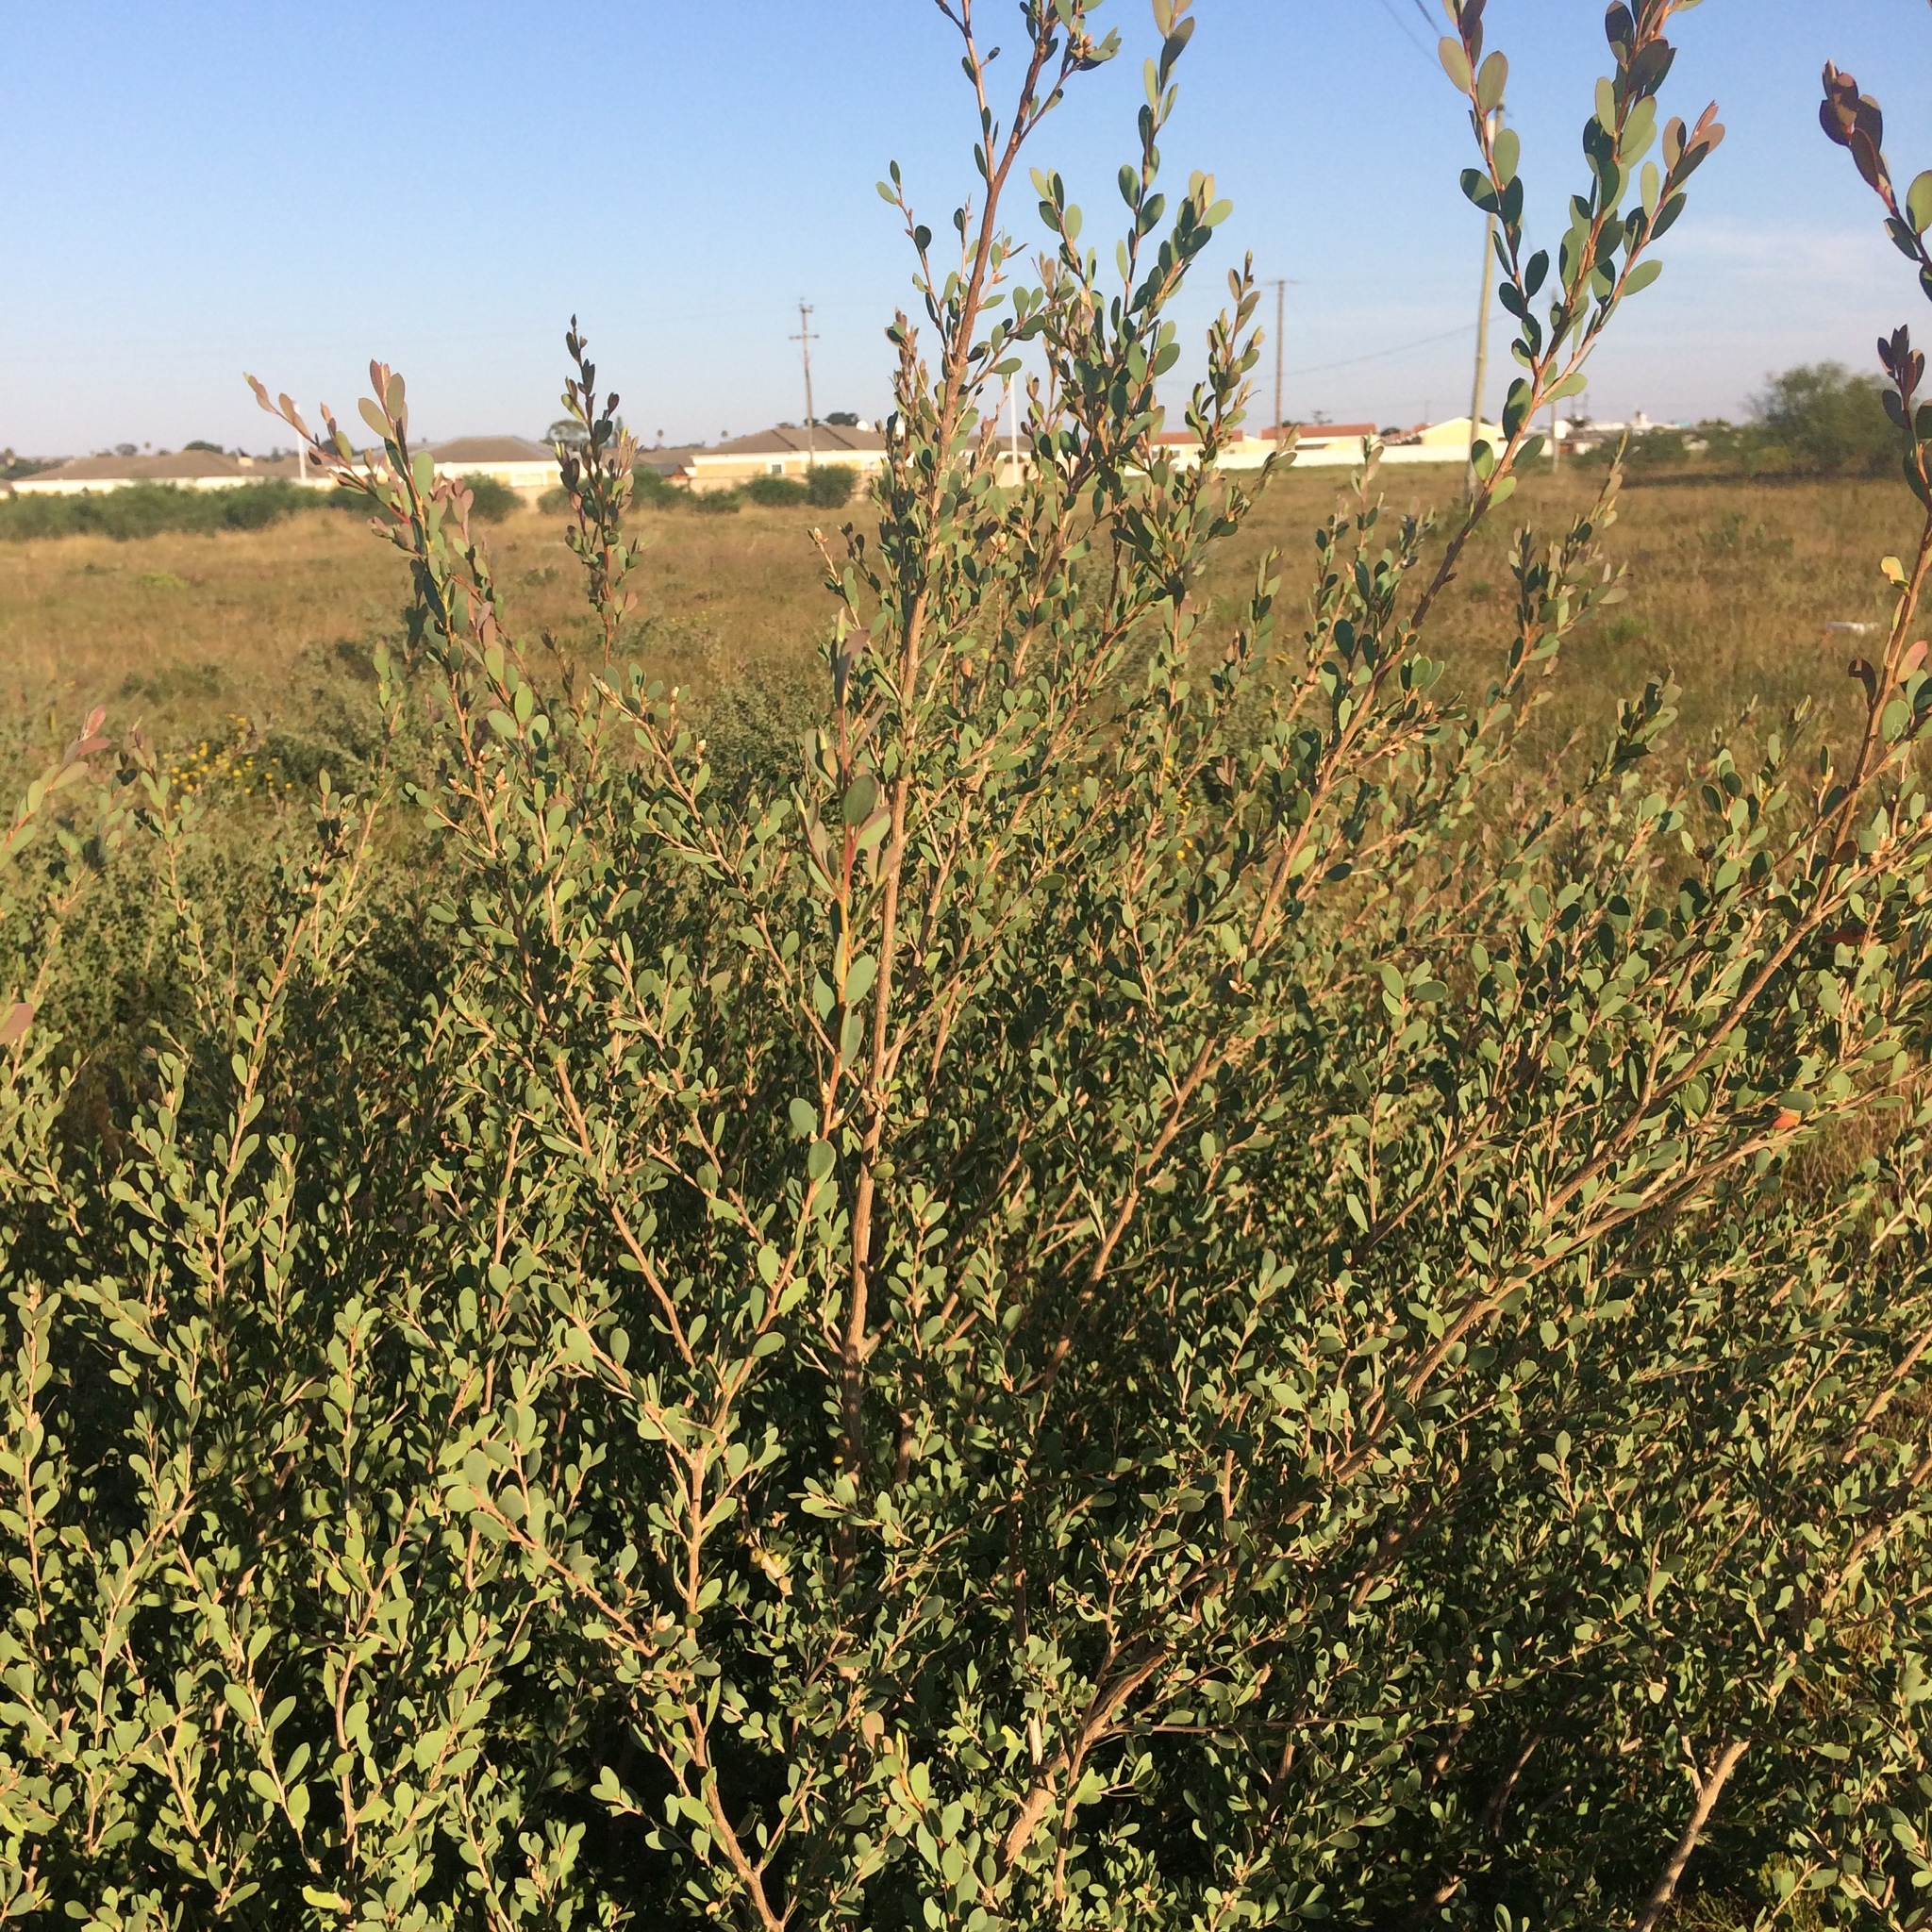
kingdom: Plantae
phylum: Tracheophyta
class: Magnoliopsida
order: Myrtales
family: Myrtaceae
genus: Leptospermum
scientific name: Leptospermum laevigatum
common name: Australian teatree
